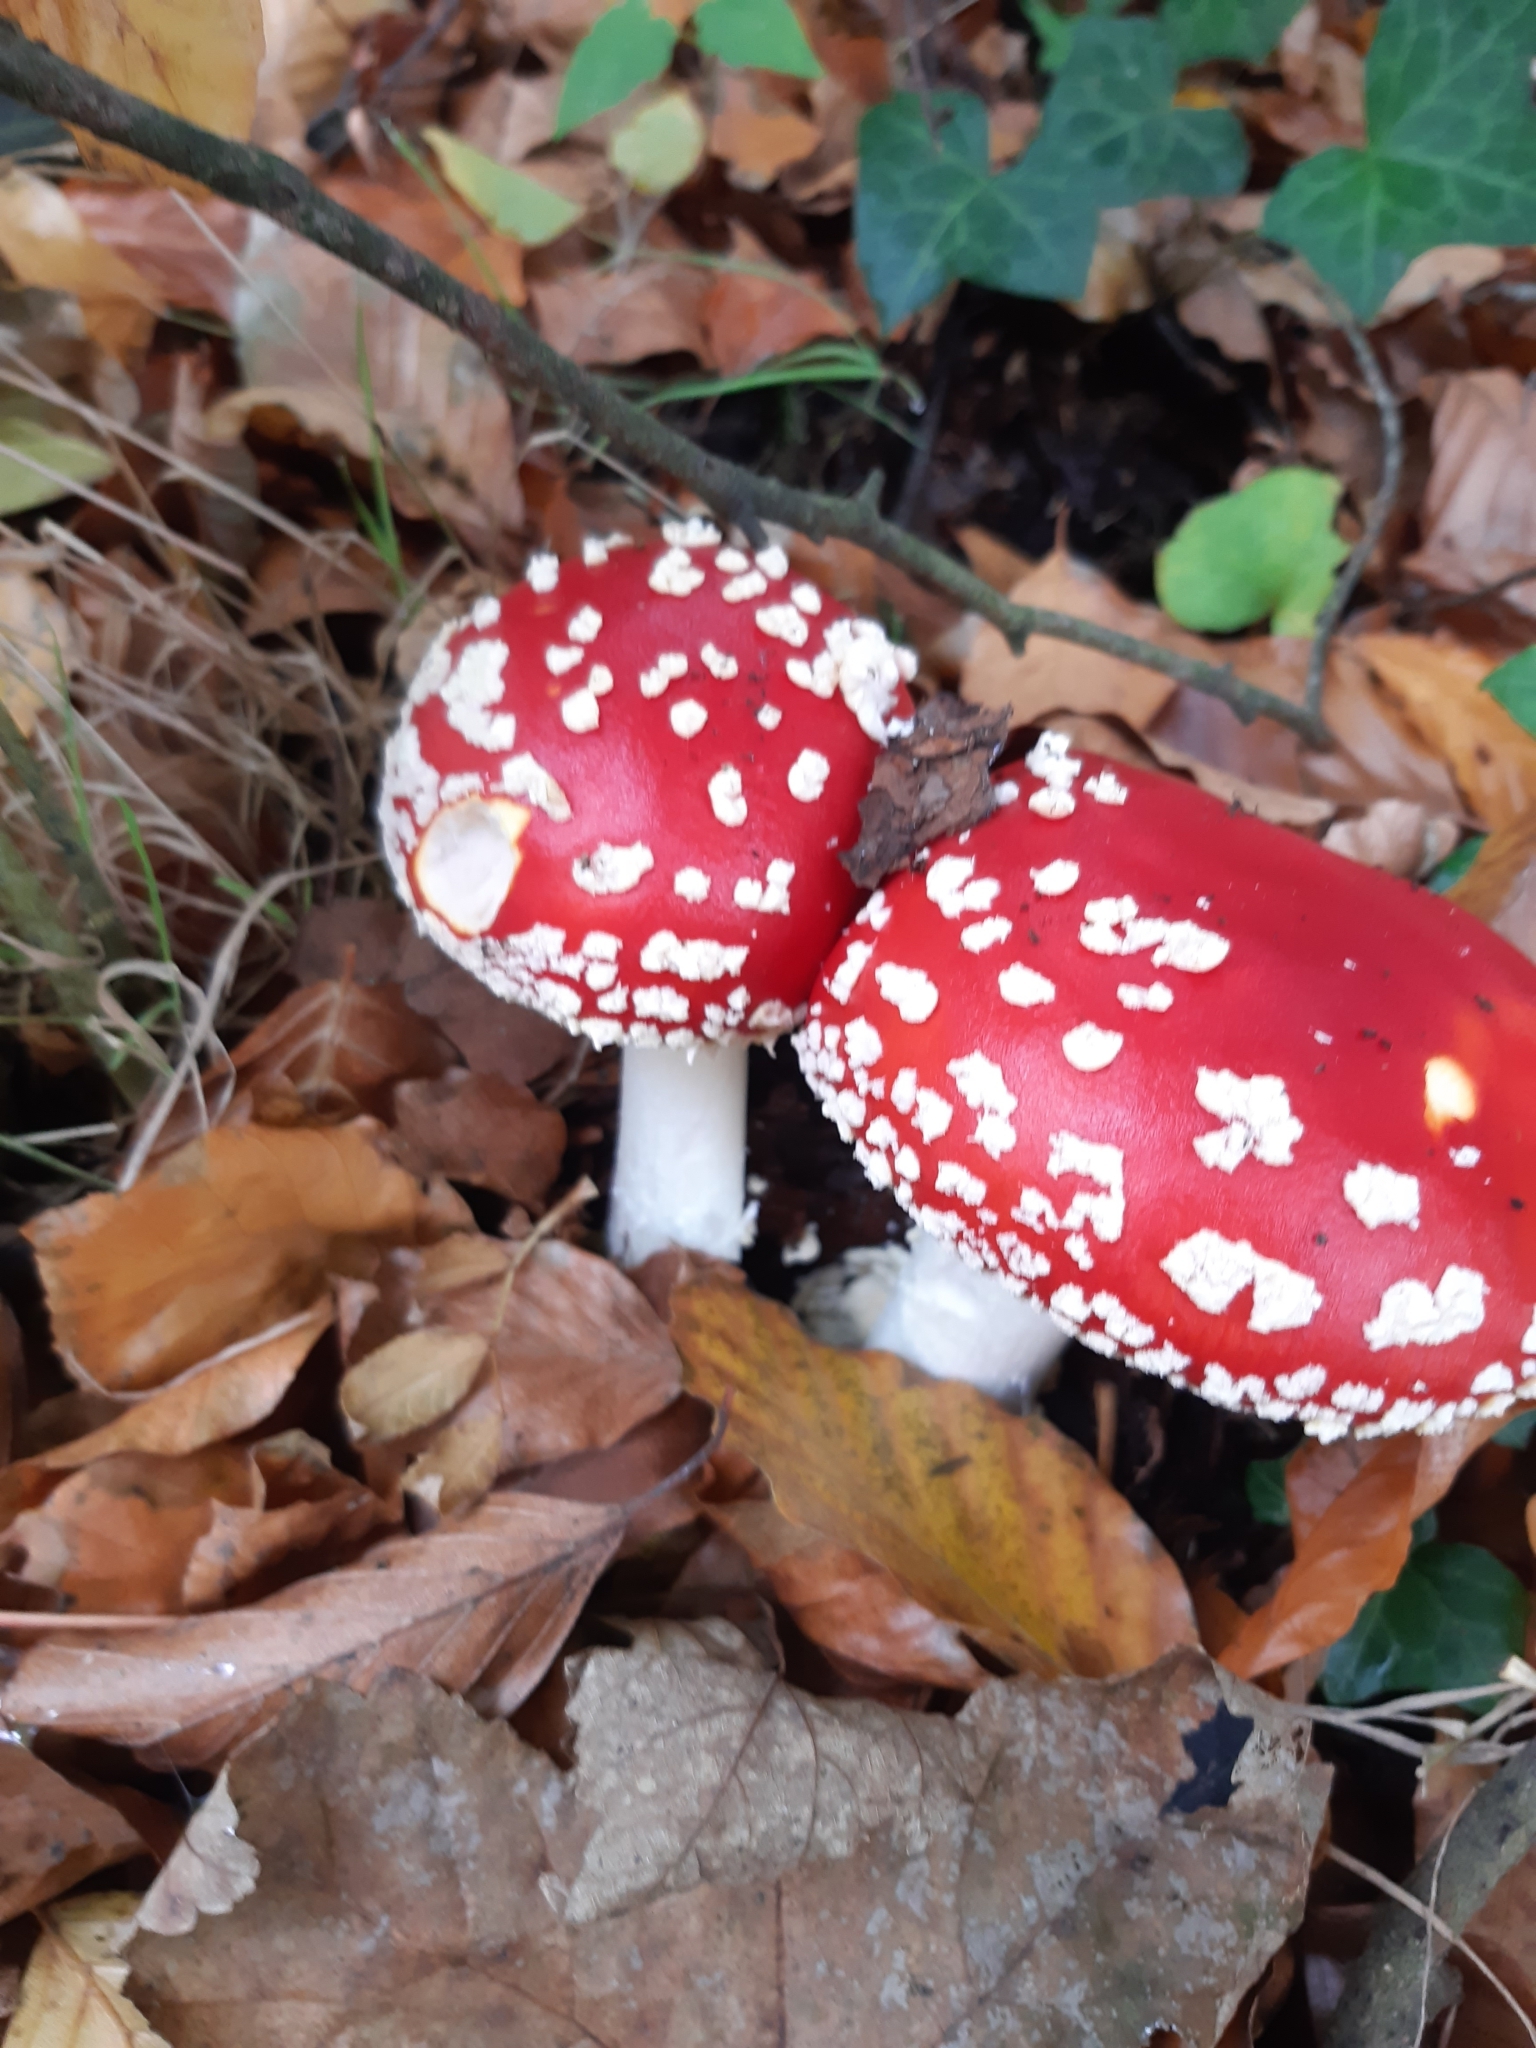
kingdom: Fungi
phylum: Basidiomycota
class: Agaricomycetes
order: Agaricales
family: Amanitaceae
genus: Amanita
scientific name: Amanita muscaria
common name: Fly agaric
